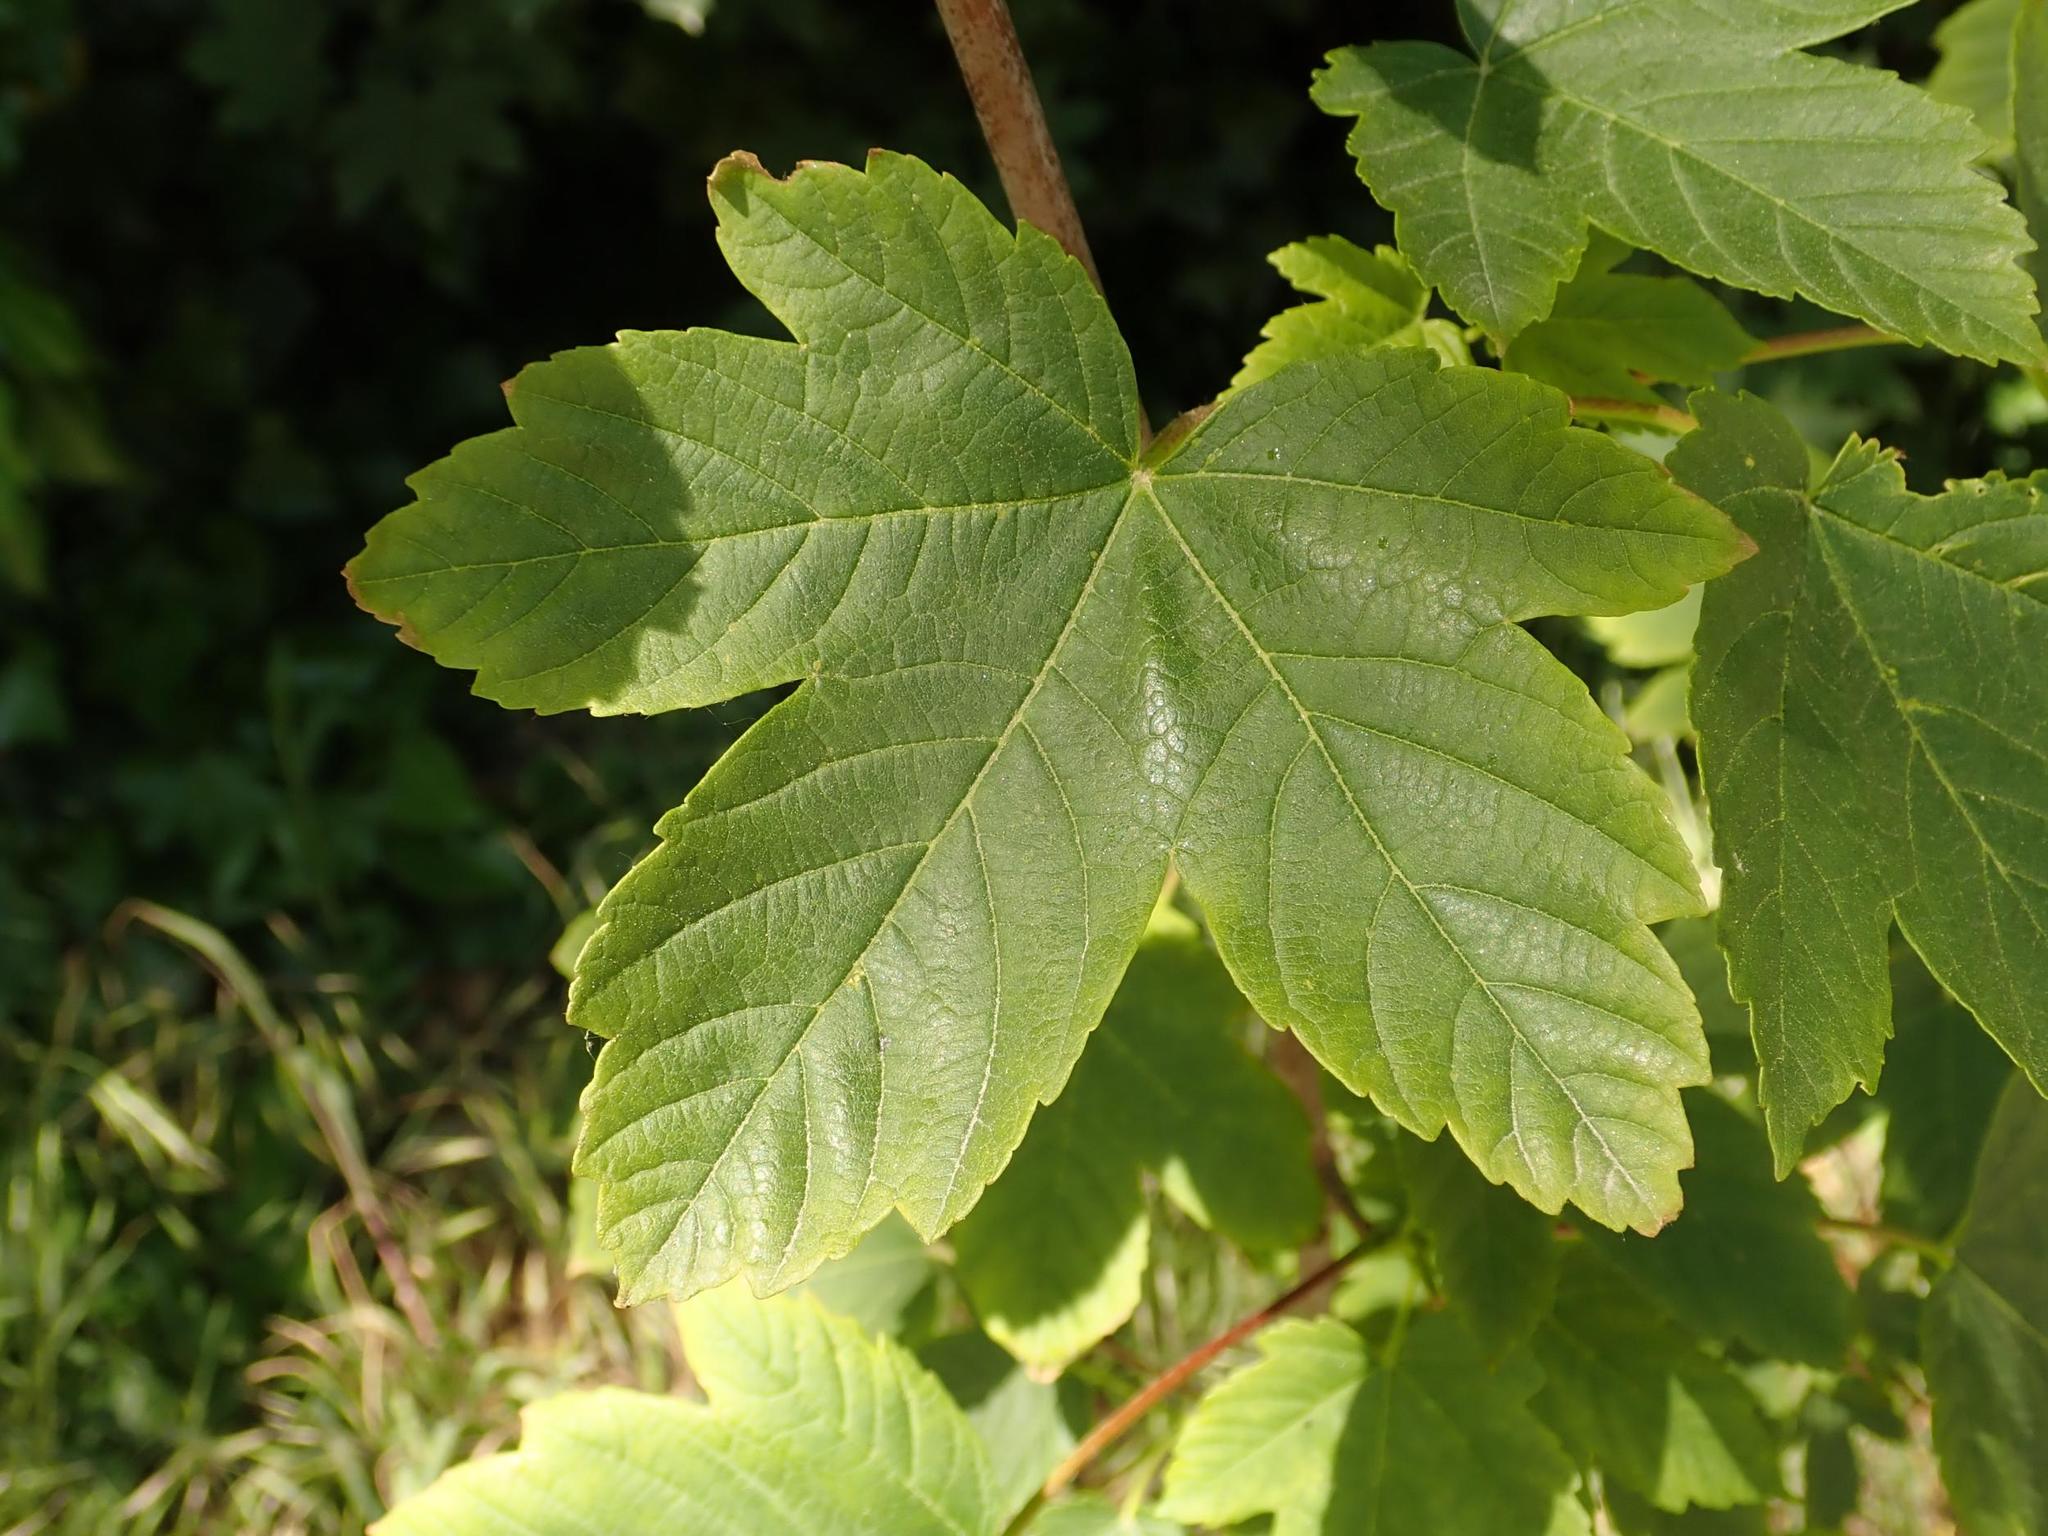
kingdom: Plantae
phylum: Tracheophyta
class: Magnoliopsida
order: Sapindales
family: Sapindaceae
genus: Acer
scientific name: Acer pseudoplatanus
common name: Sycamore
